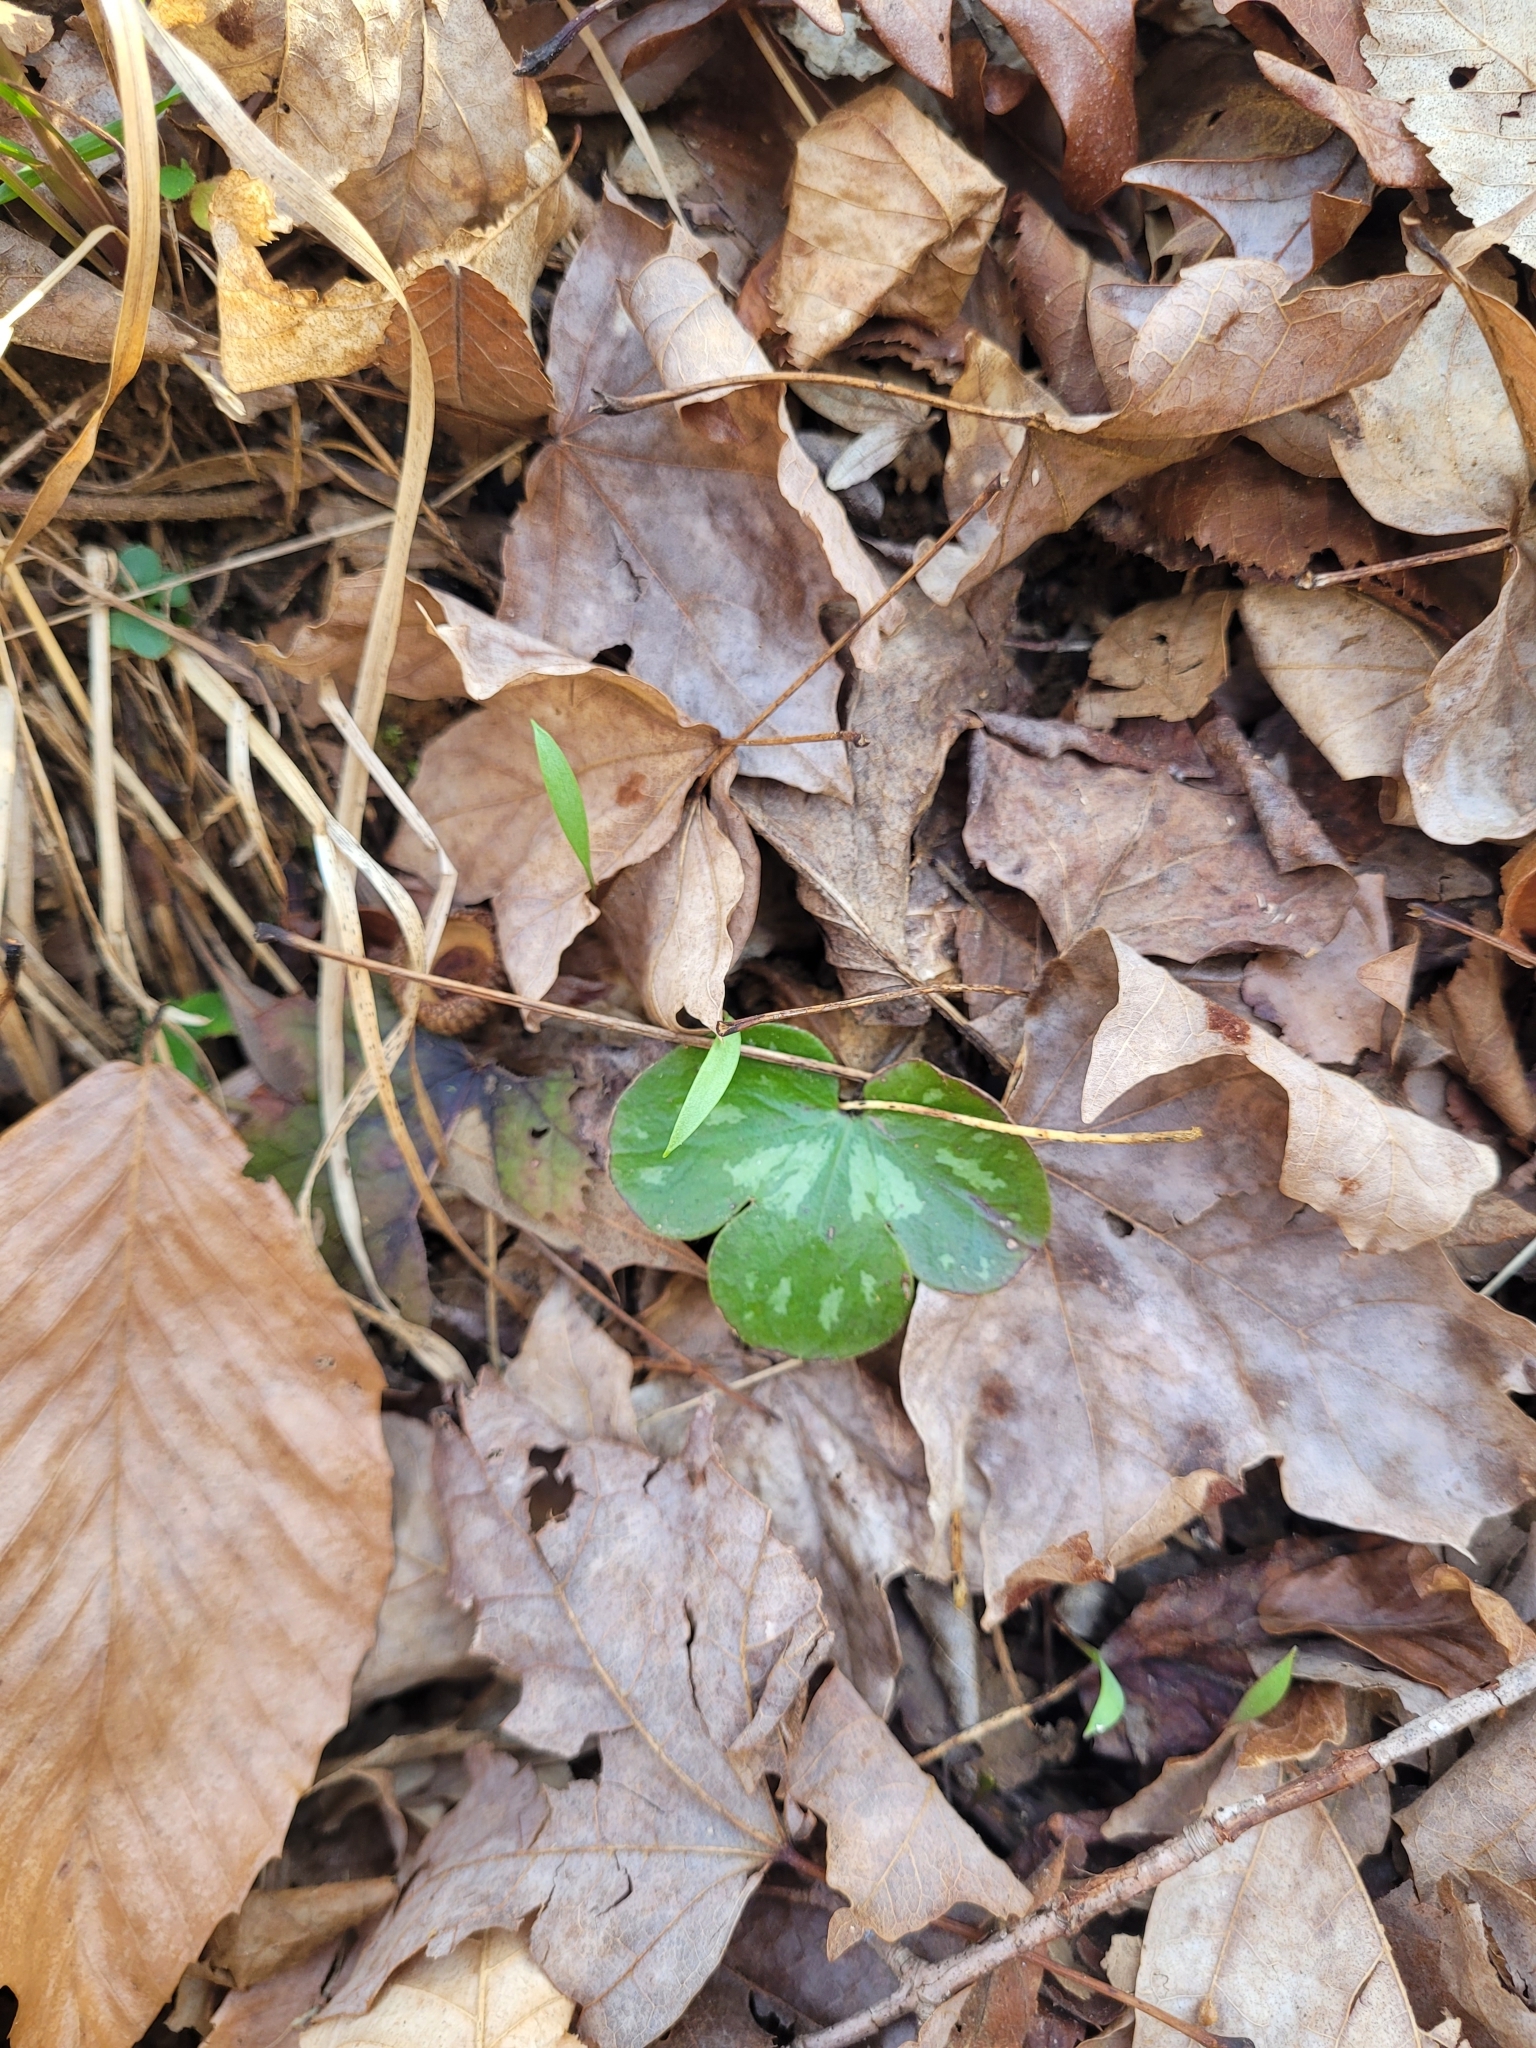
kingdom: Plantae
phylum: Tracheophyta
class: Magnoliopsida
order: Ranunculales
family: Ranunculaceae
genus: Hepatica
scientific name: Hepatica americana
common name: American hepatica
